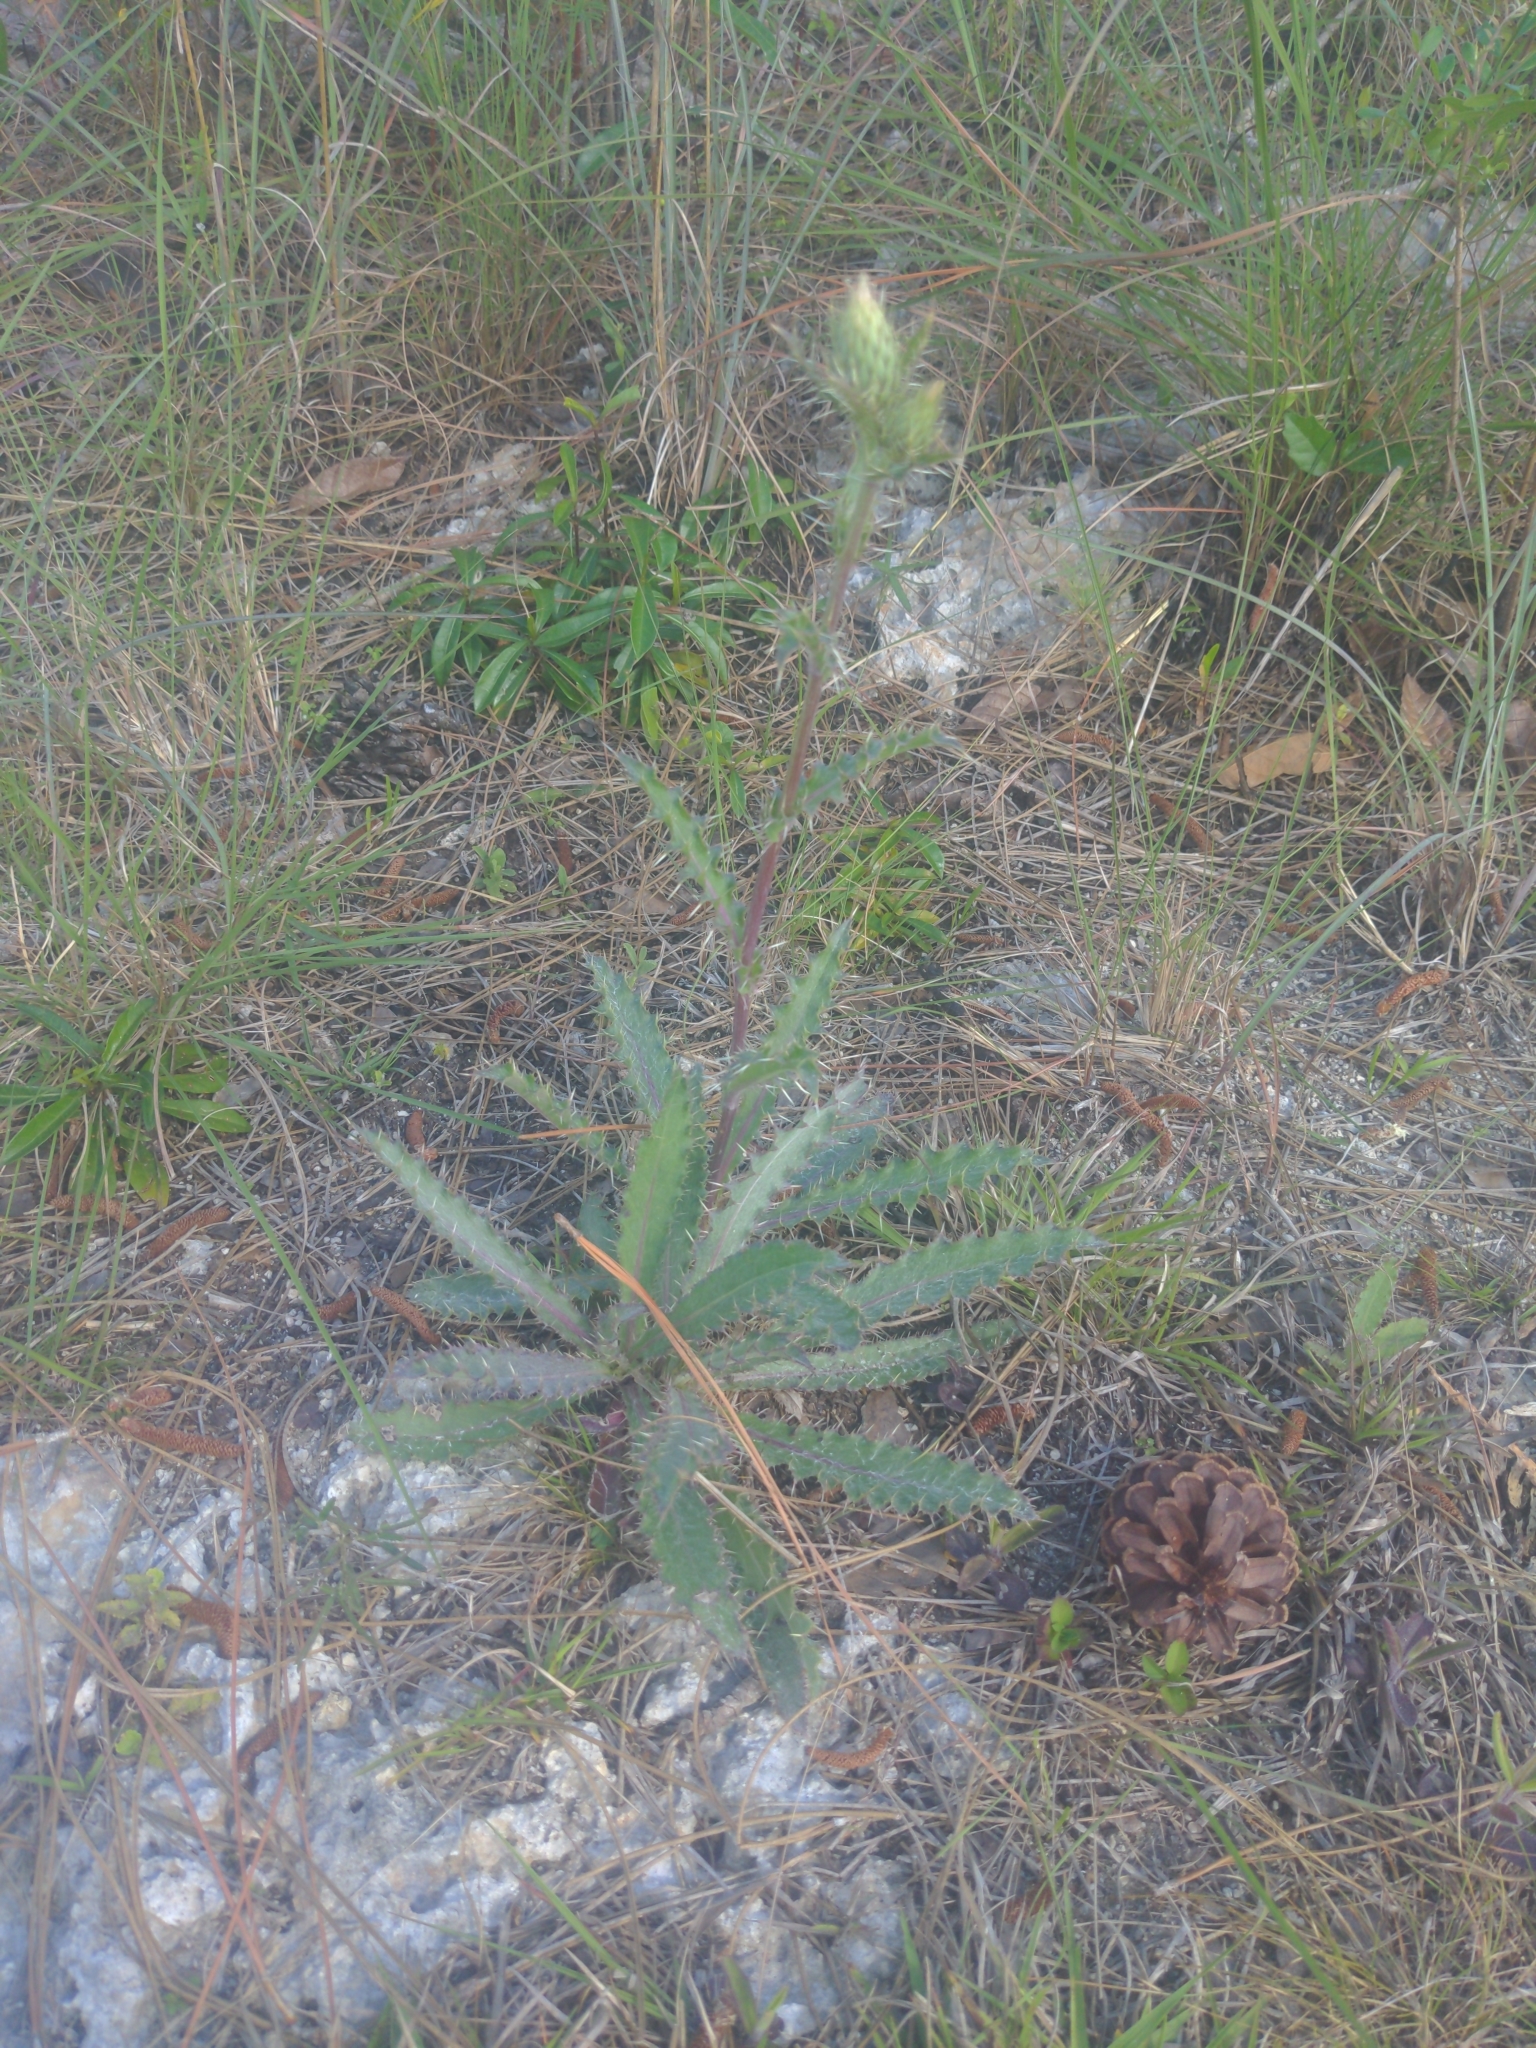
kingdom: Plantae
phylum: Tracheophyta
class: Magnoliopsida
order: Asterales
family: Asteraceae
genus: Cirsium
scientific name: Cirsium horridulum
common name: Bristly thistle
